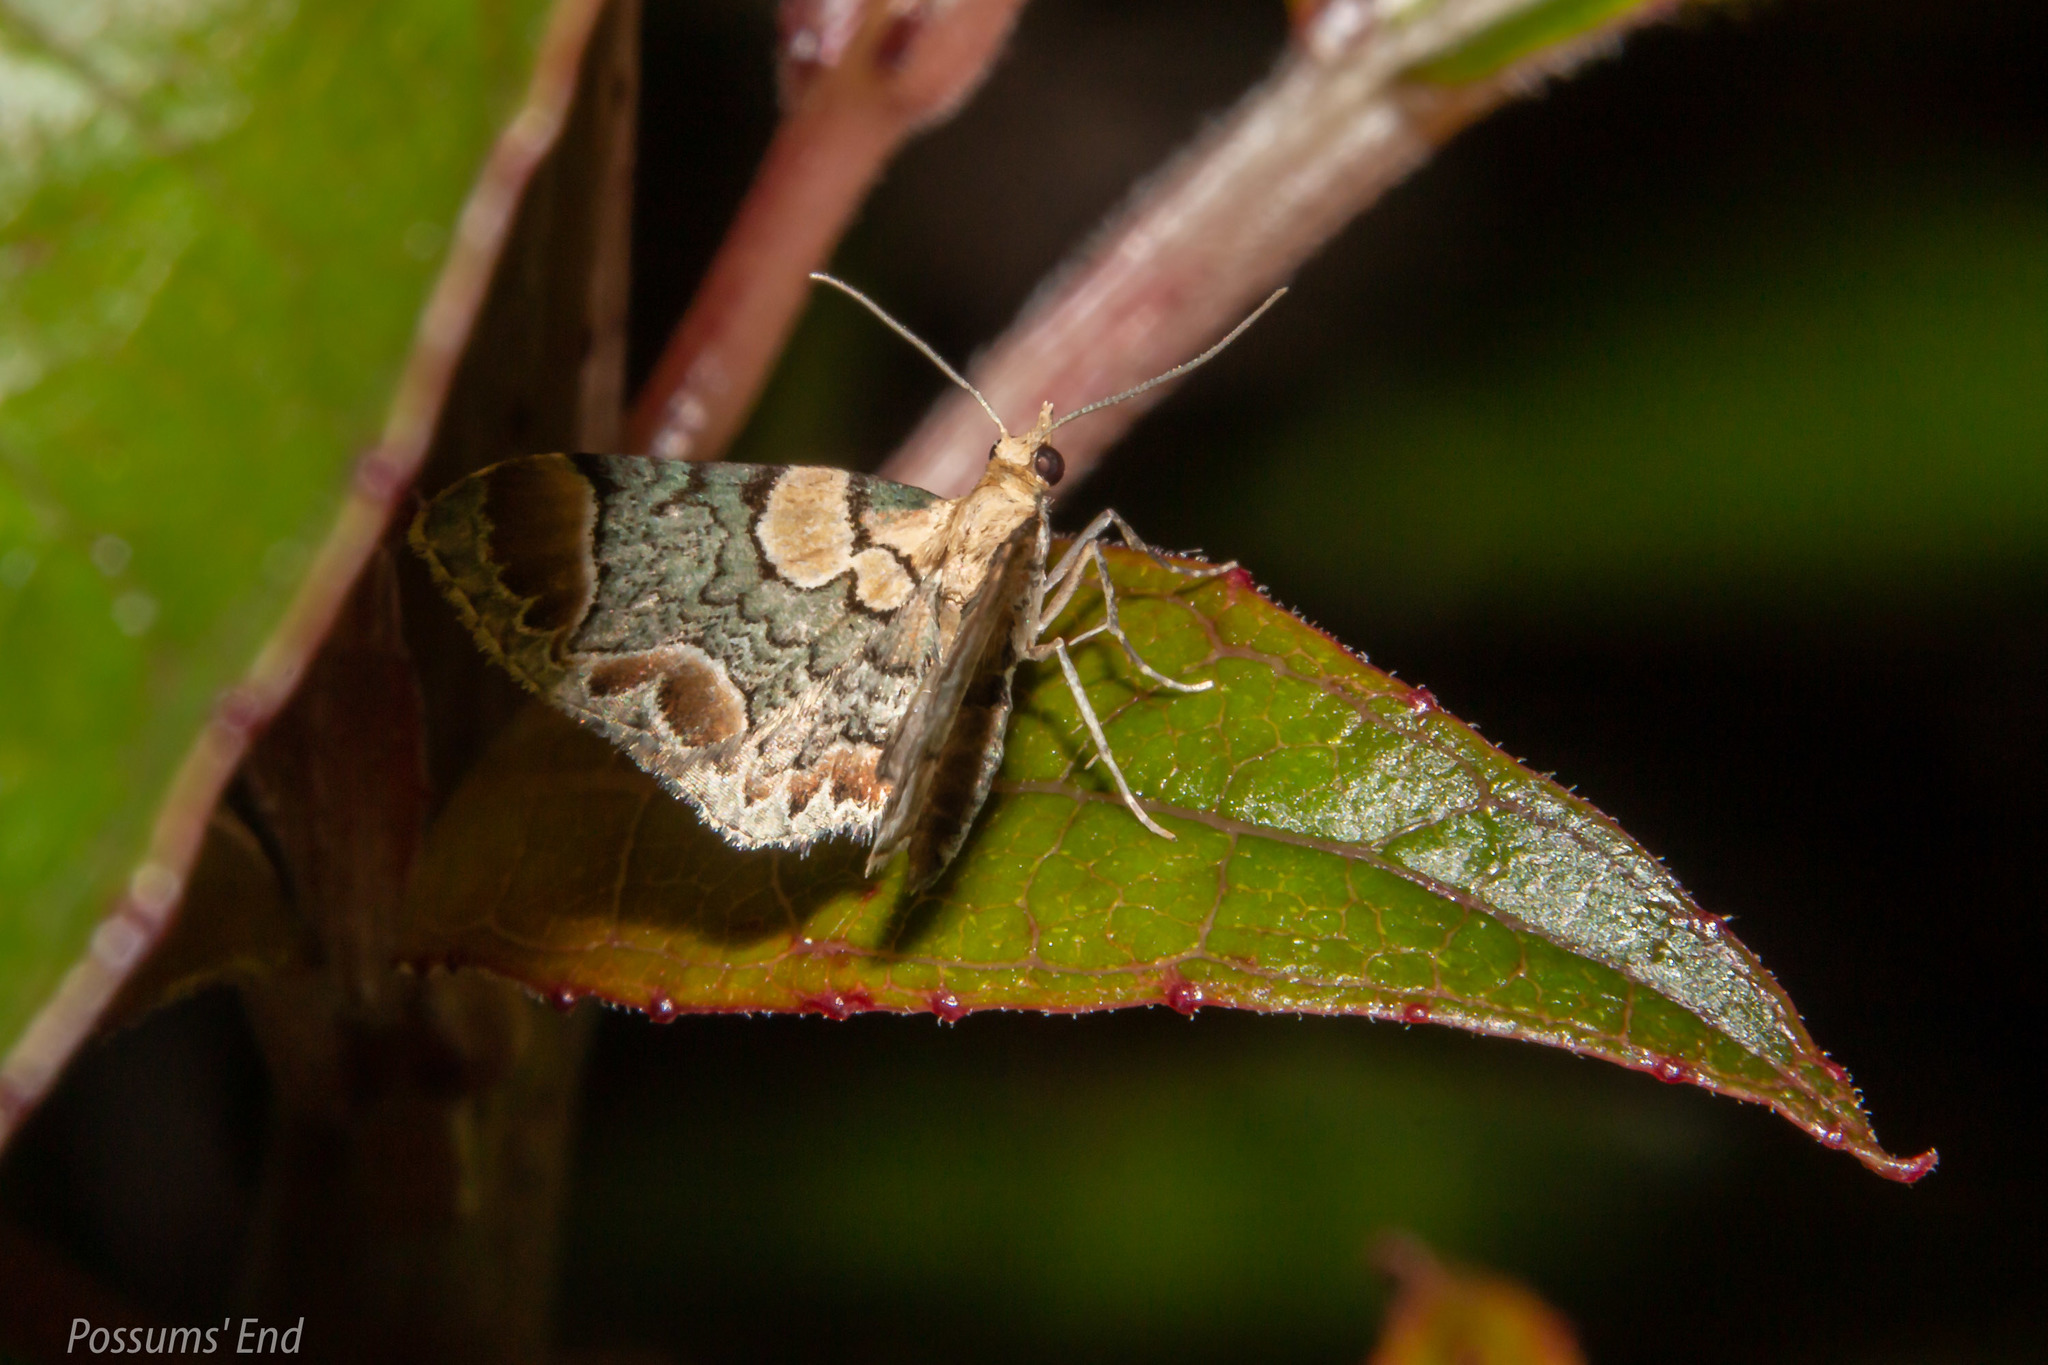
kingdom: Animalia
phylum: Arthropoda
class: Insecta
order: Lepidoptera
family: Geometridae
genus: Chloroclystis
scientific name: Chloroclystis
